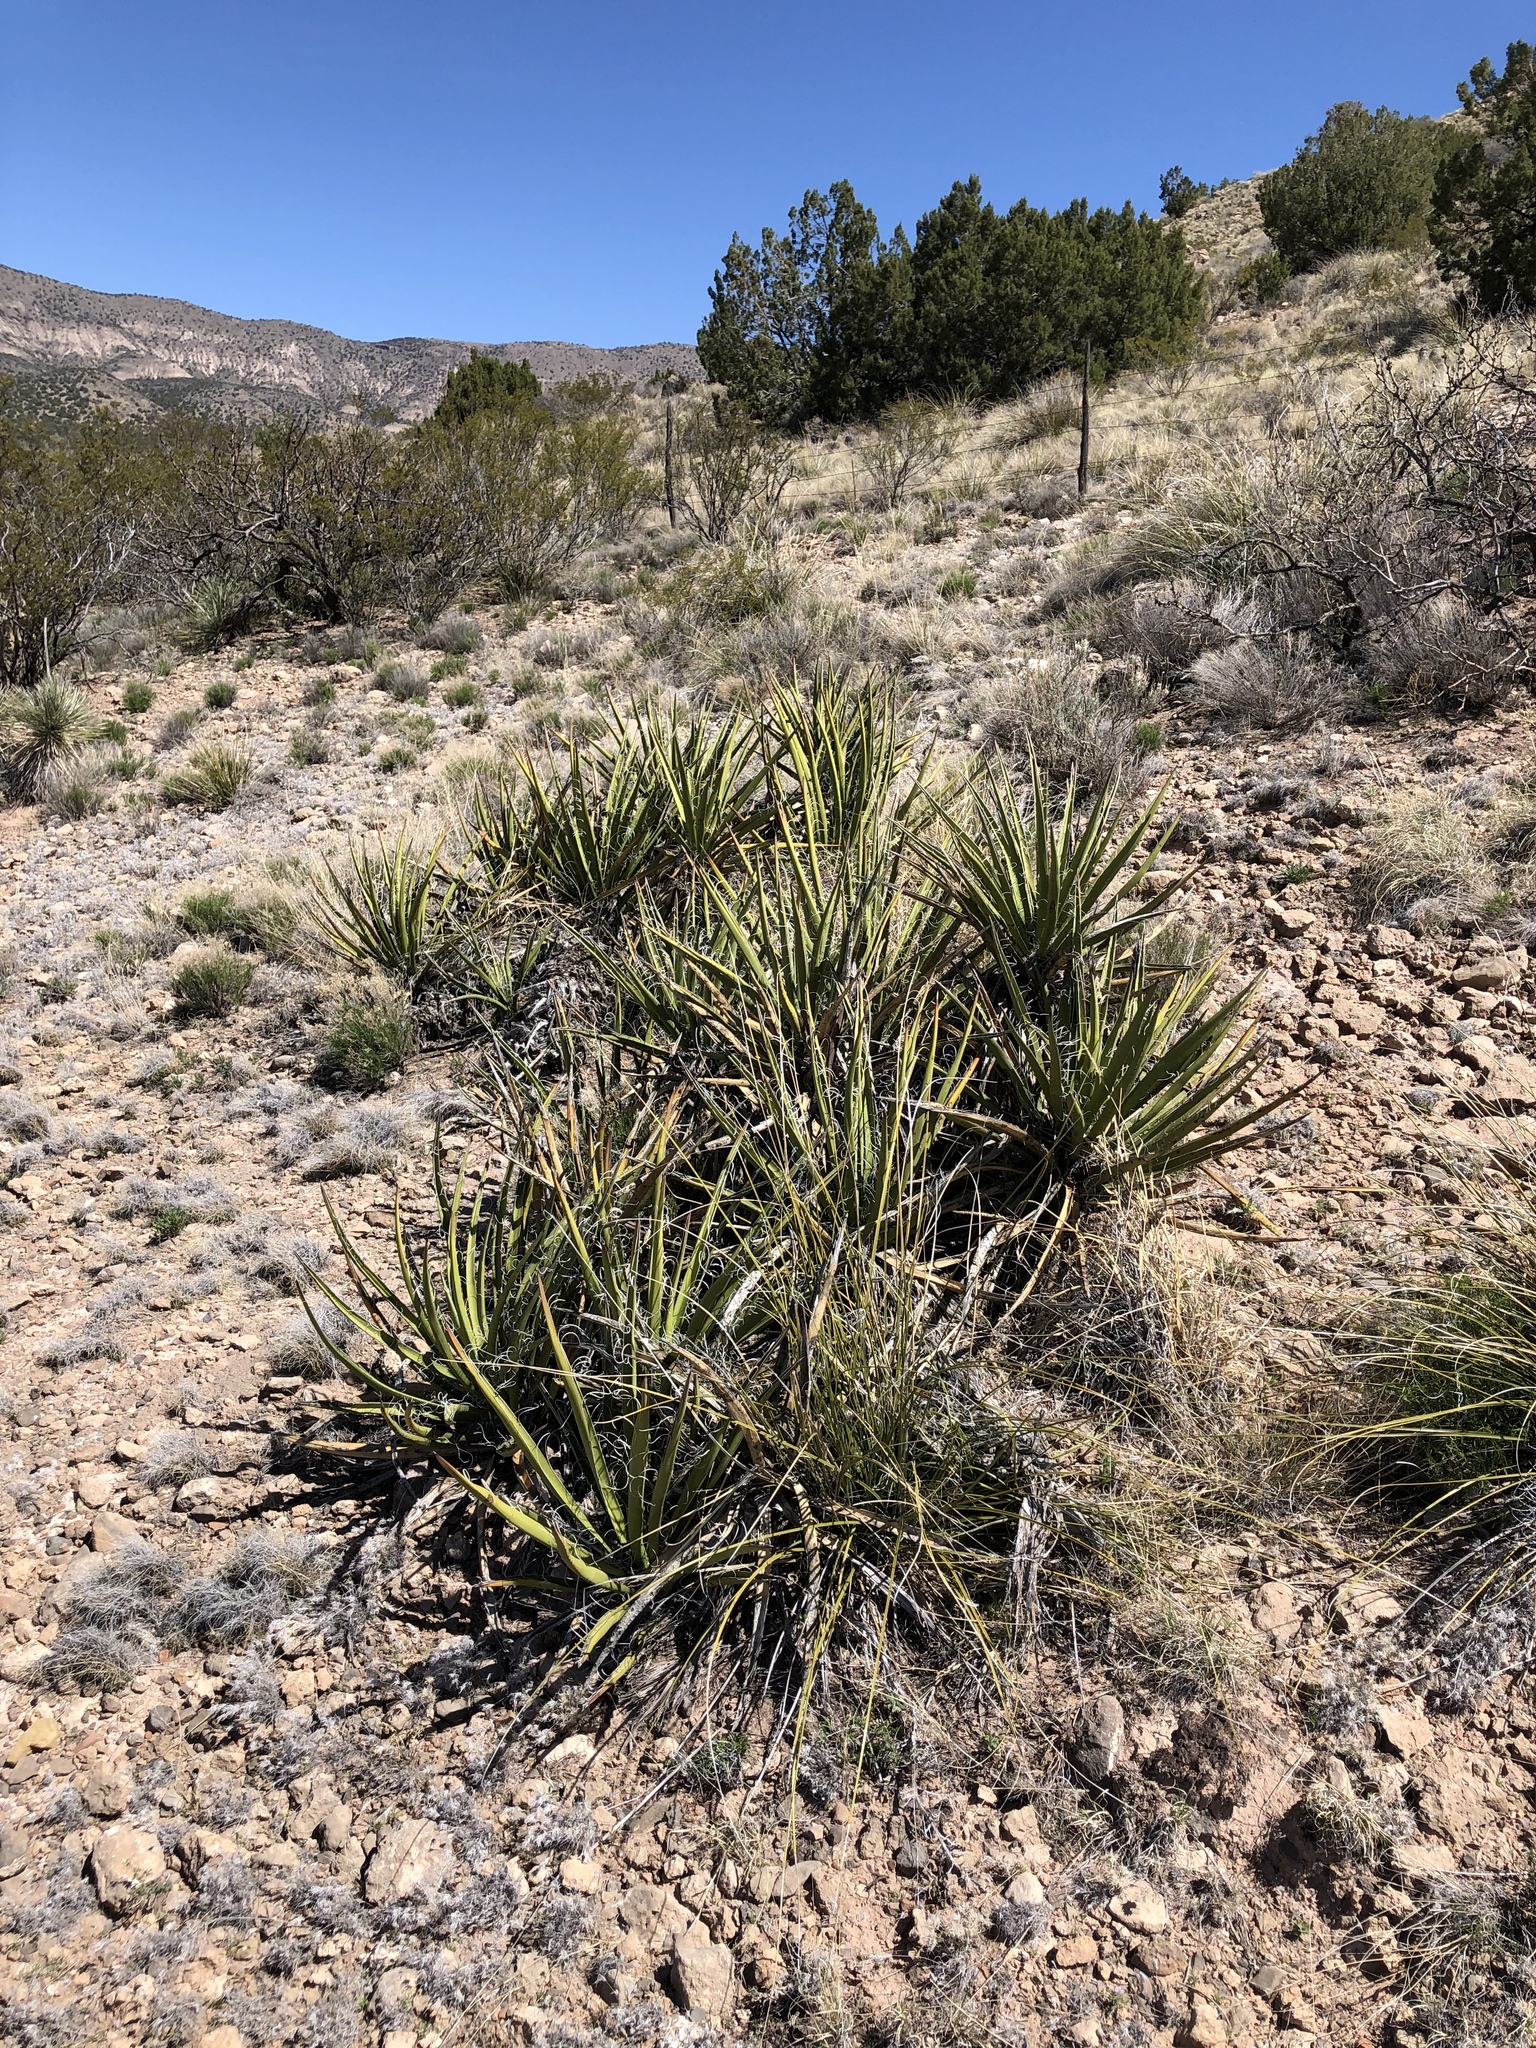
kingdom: Plantae
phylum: Tracheophyta
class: Liliopsida
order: Asparagales
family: Asparagaceae
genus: Yucca
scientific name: Yucca baccata
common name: Banana yucca
